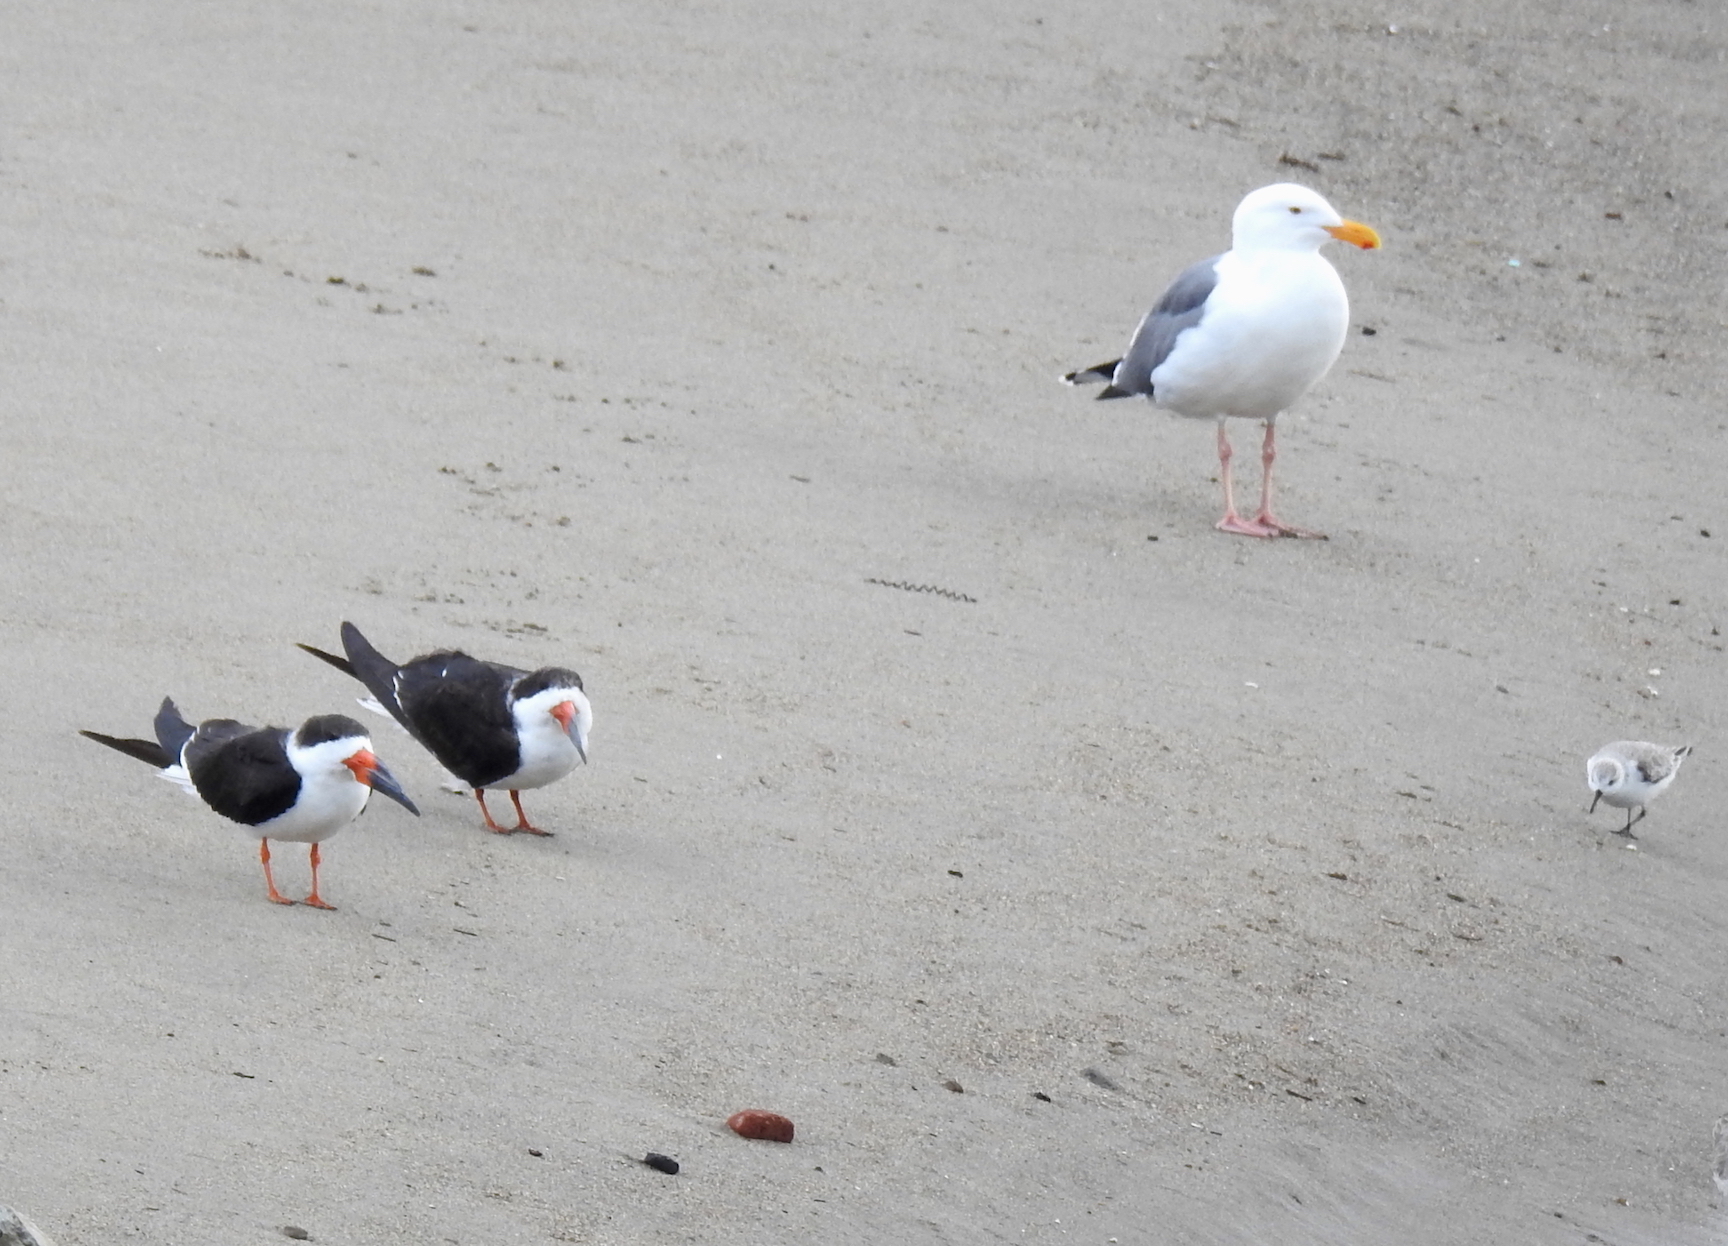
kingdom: Animalia
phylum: Chordata
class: Aves
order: Charadriiformes
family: Laridae
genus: Rynchops
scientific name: Rynchops niger
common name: Black skimmer
